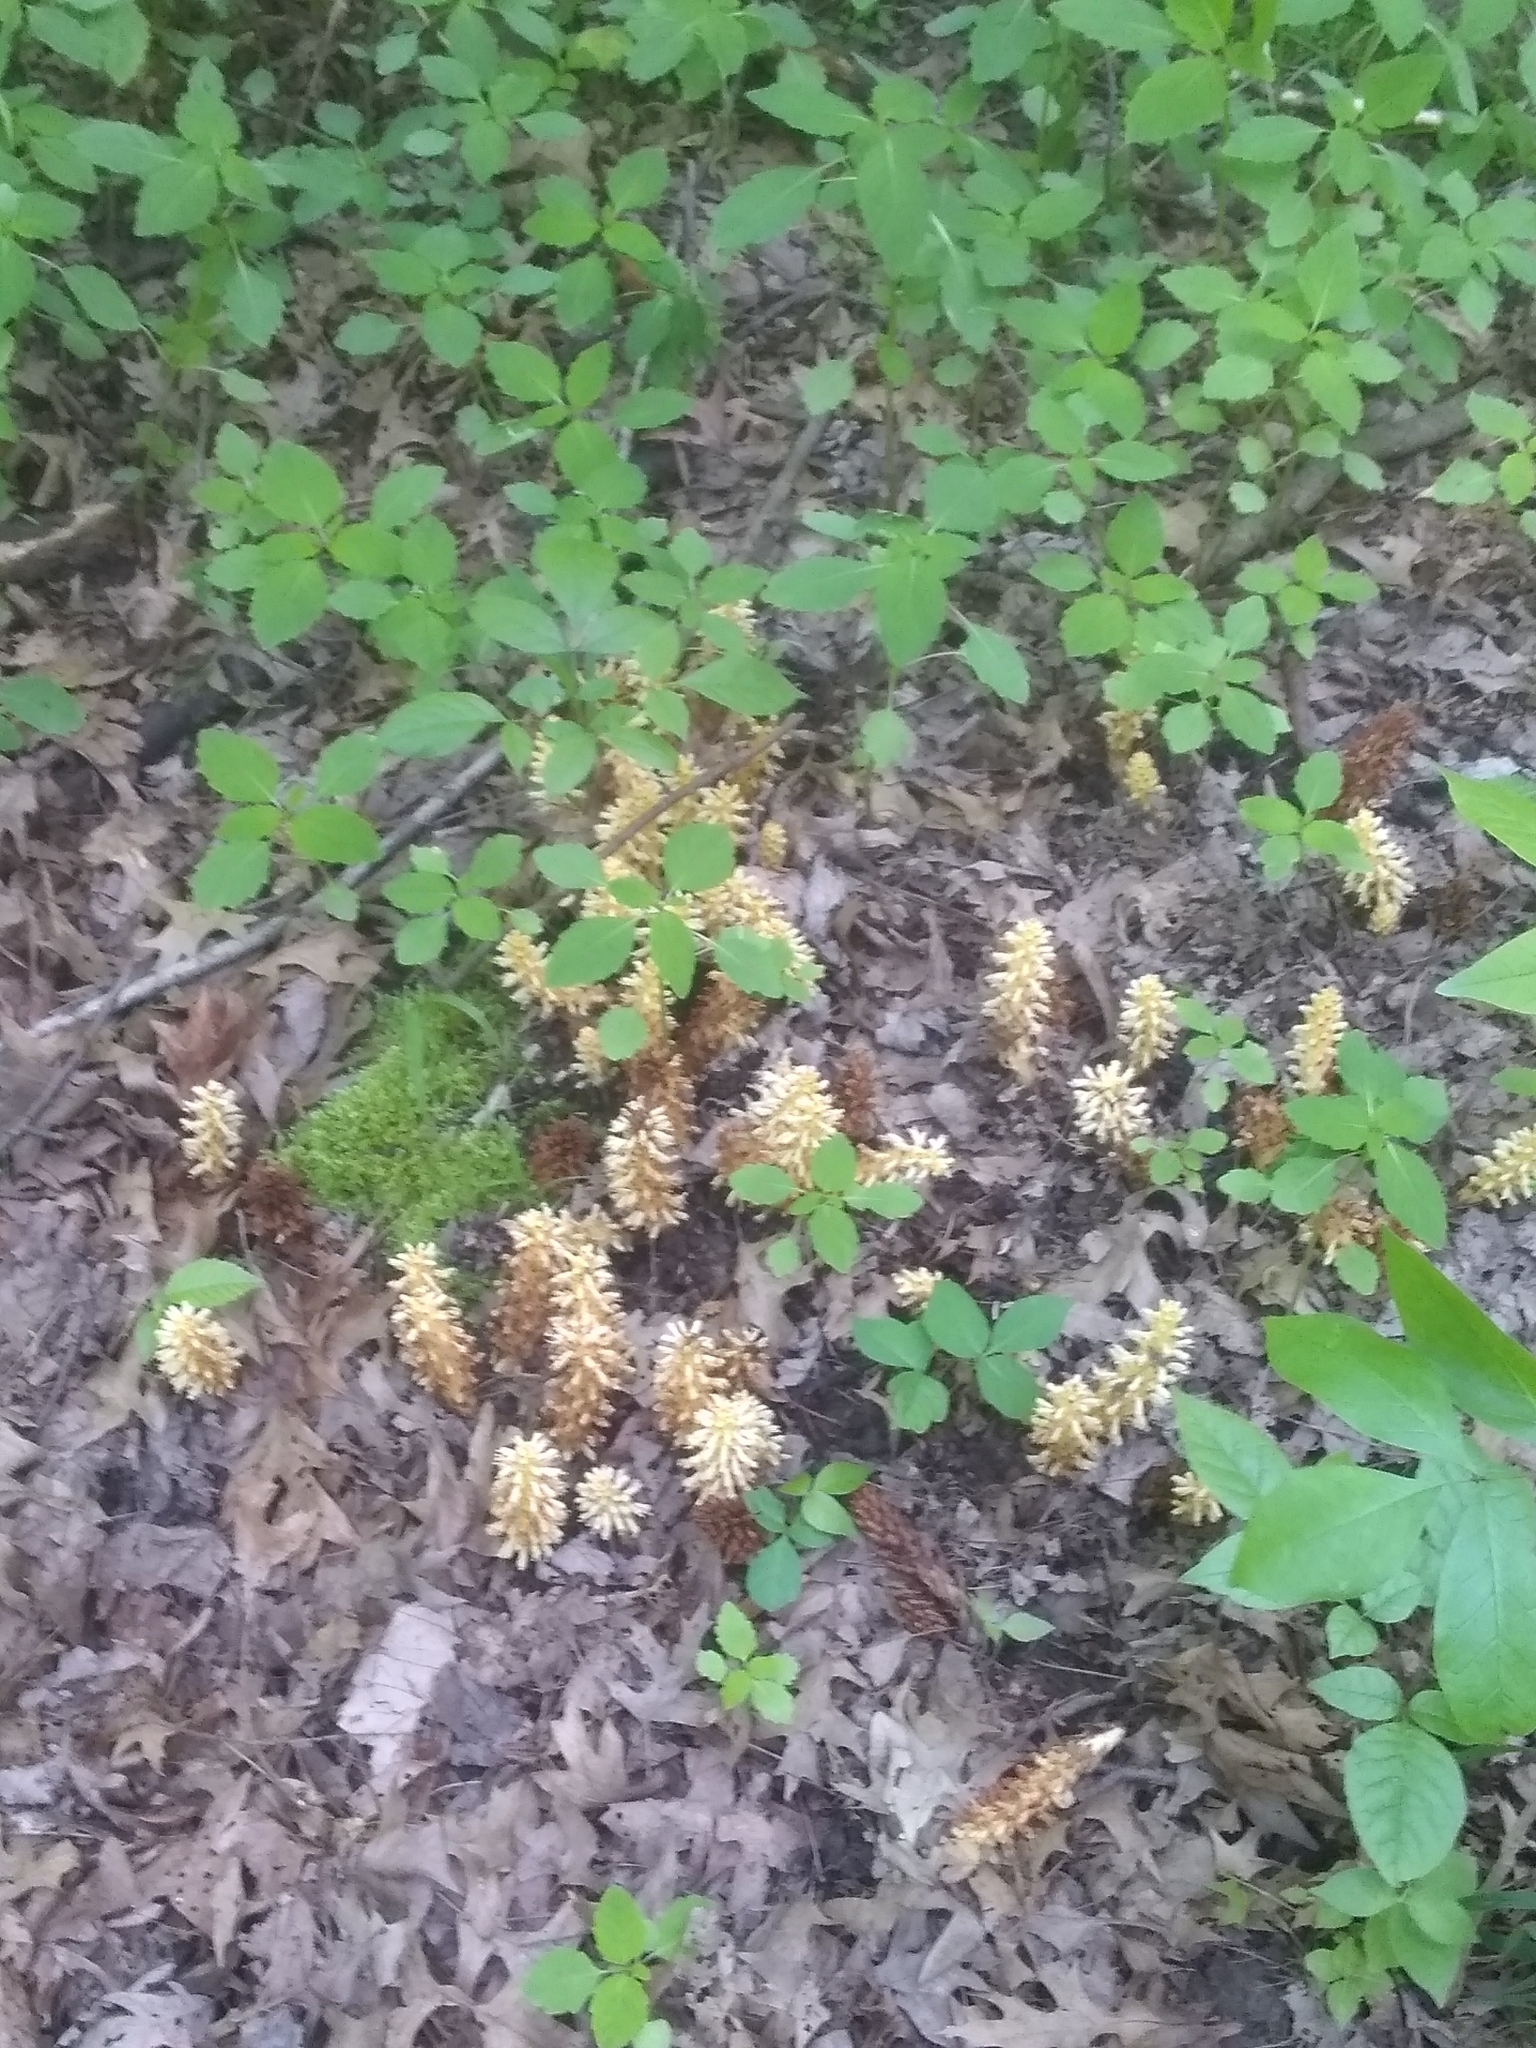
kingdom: Plantae
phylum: Tracheophyta
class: Magnoliopsida
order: Lamiales
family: Orobanchaceae
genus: Conopholis
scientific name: Conopholis americana
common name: American cancer-root
